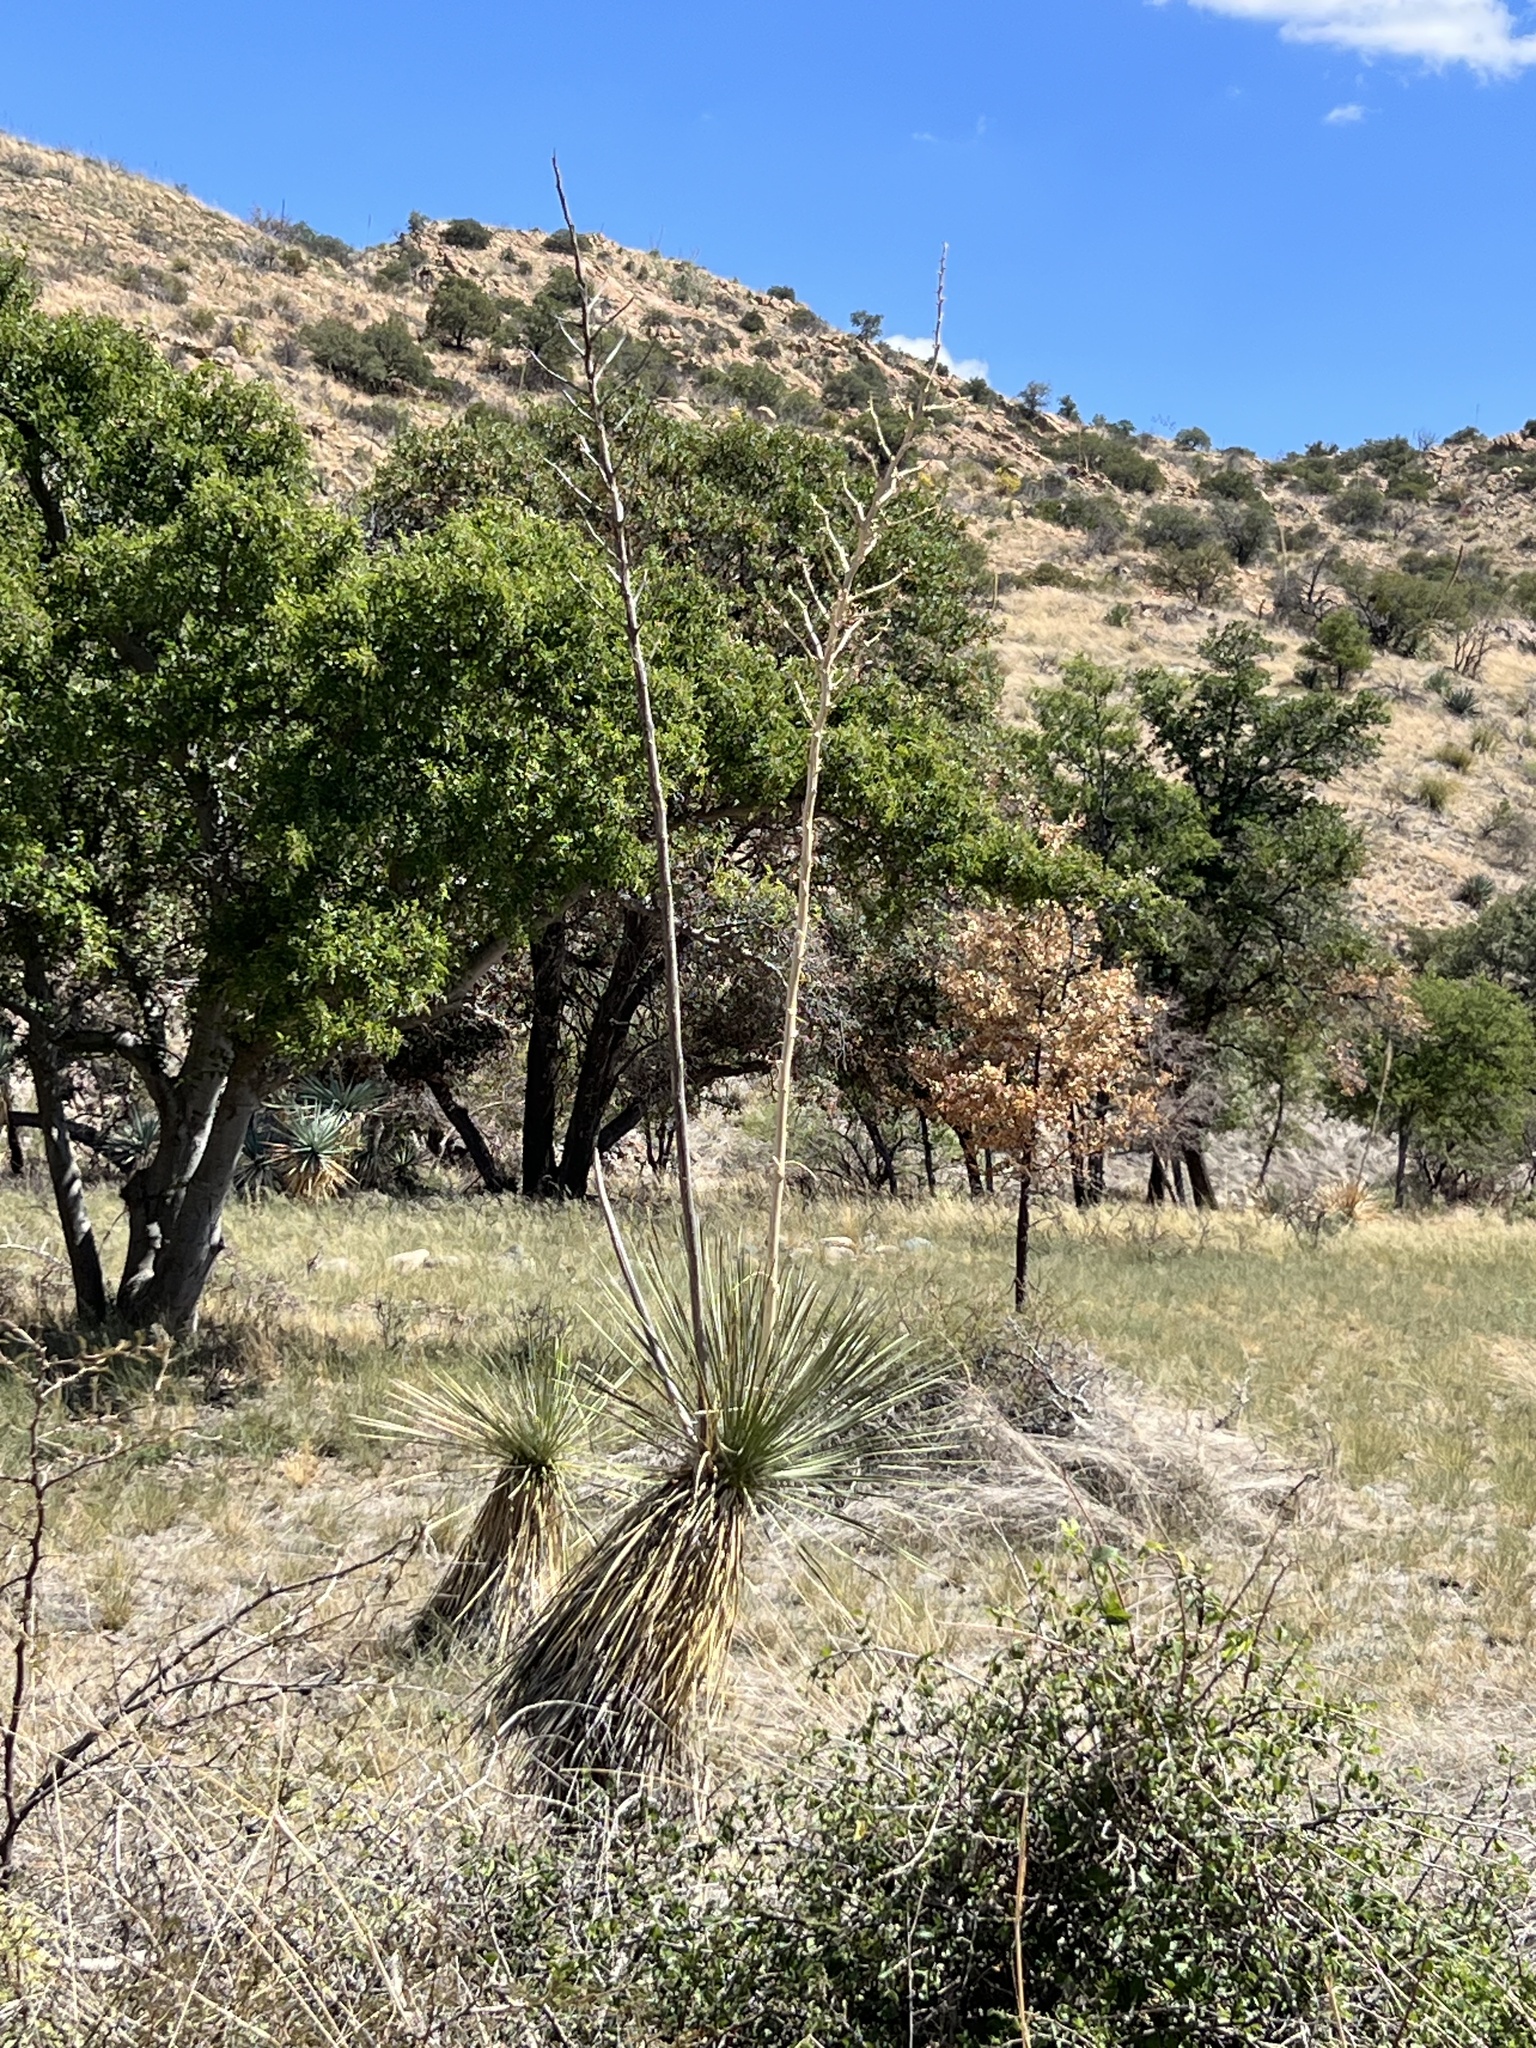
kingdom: Plantae
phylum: Tracheophyta
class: Liliopsida
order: Asparagales
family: Asparagaceae
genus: Yucca
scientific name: Yucca elata
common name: Palmella
